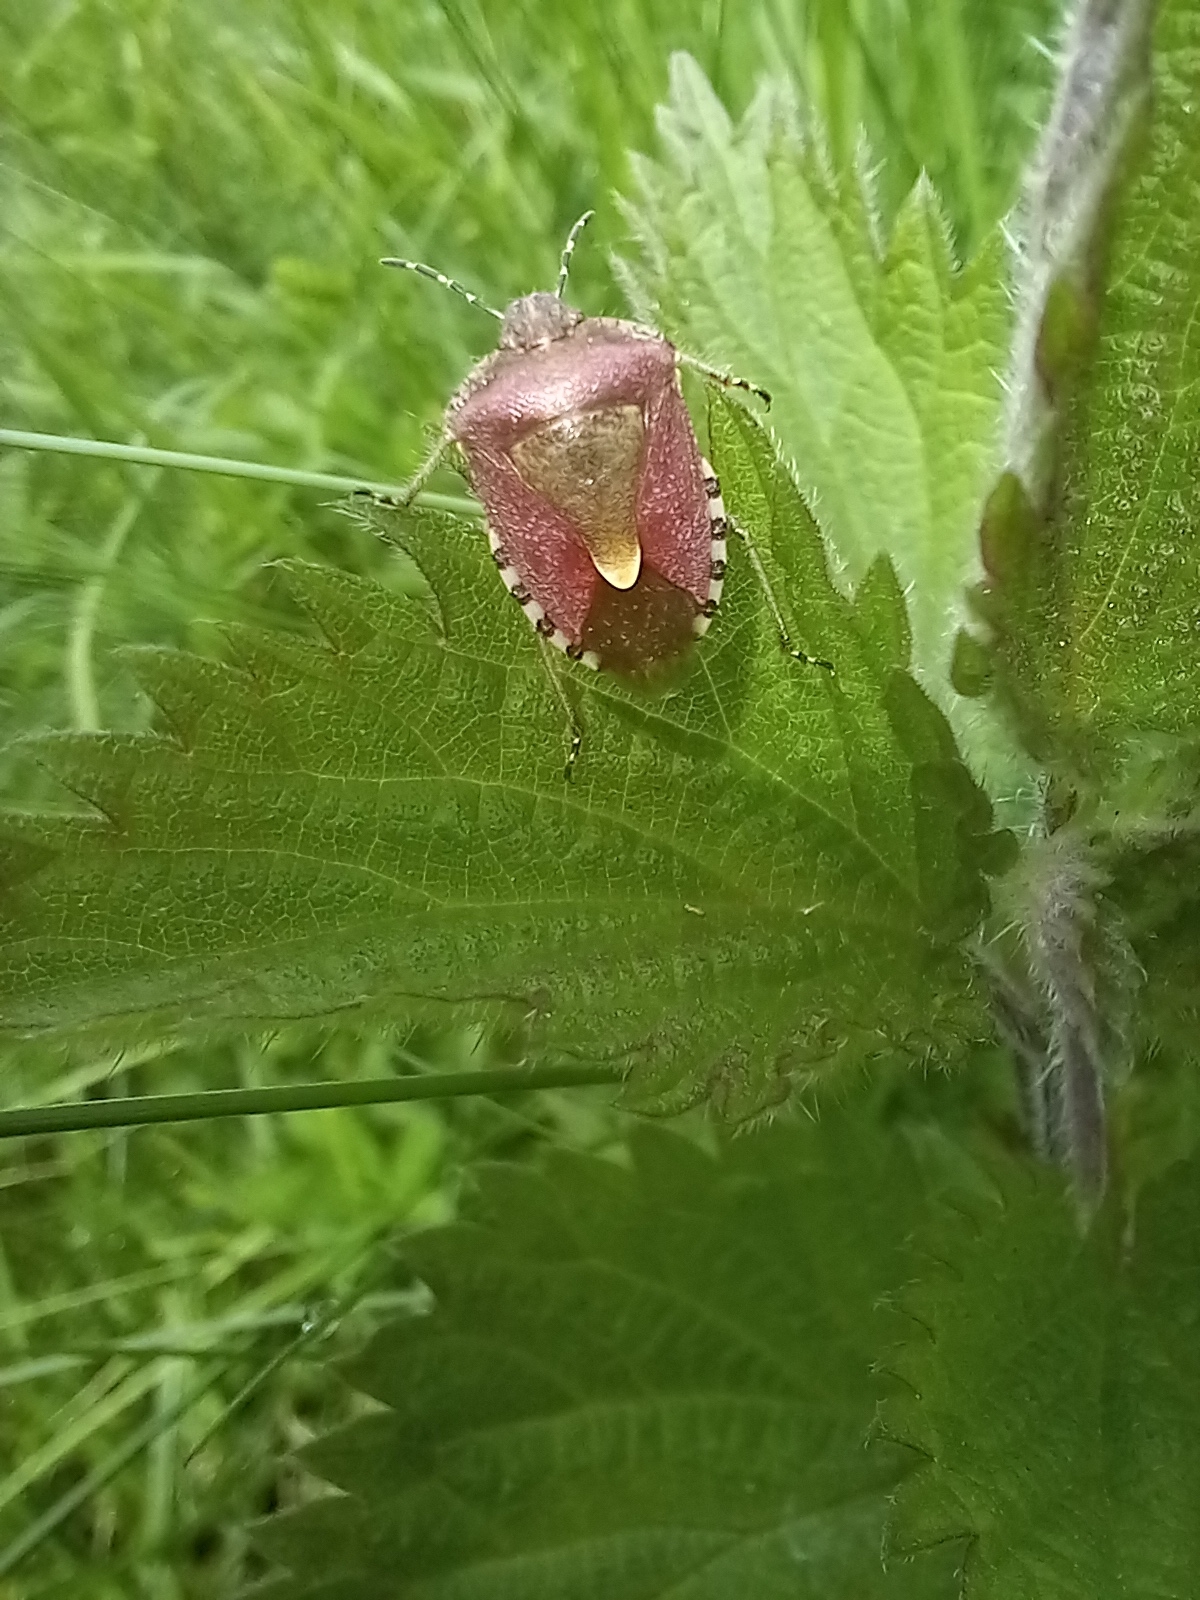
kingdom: Animalia
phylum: Arthropoda
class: Insecta
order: Hemiptera
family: Pentatomidae
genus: Dolycoris
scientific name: Dolycoris baccarum
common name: Sloe bug
